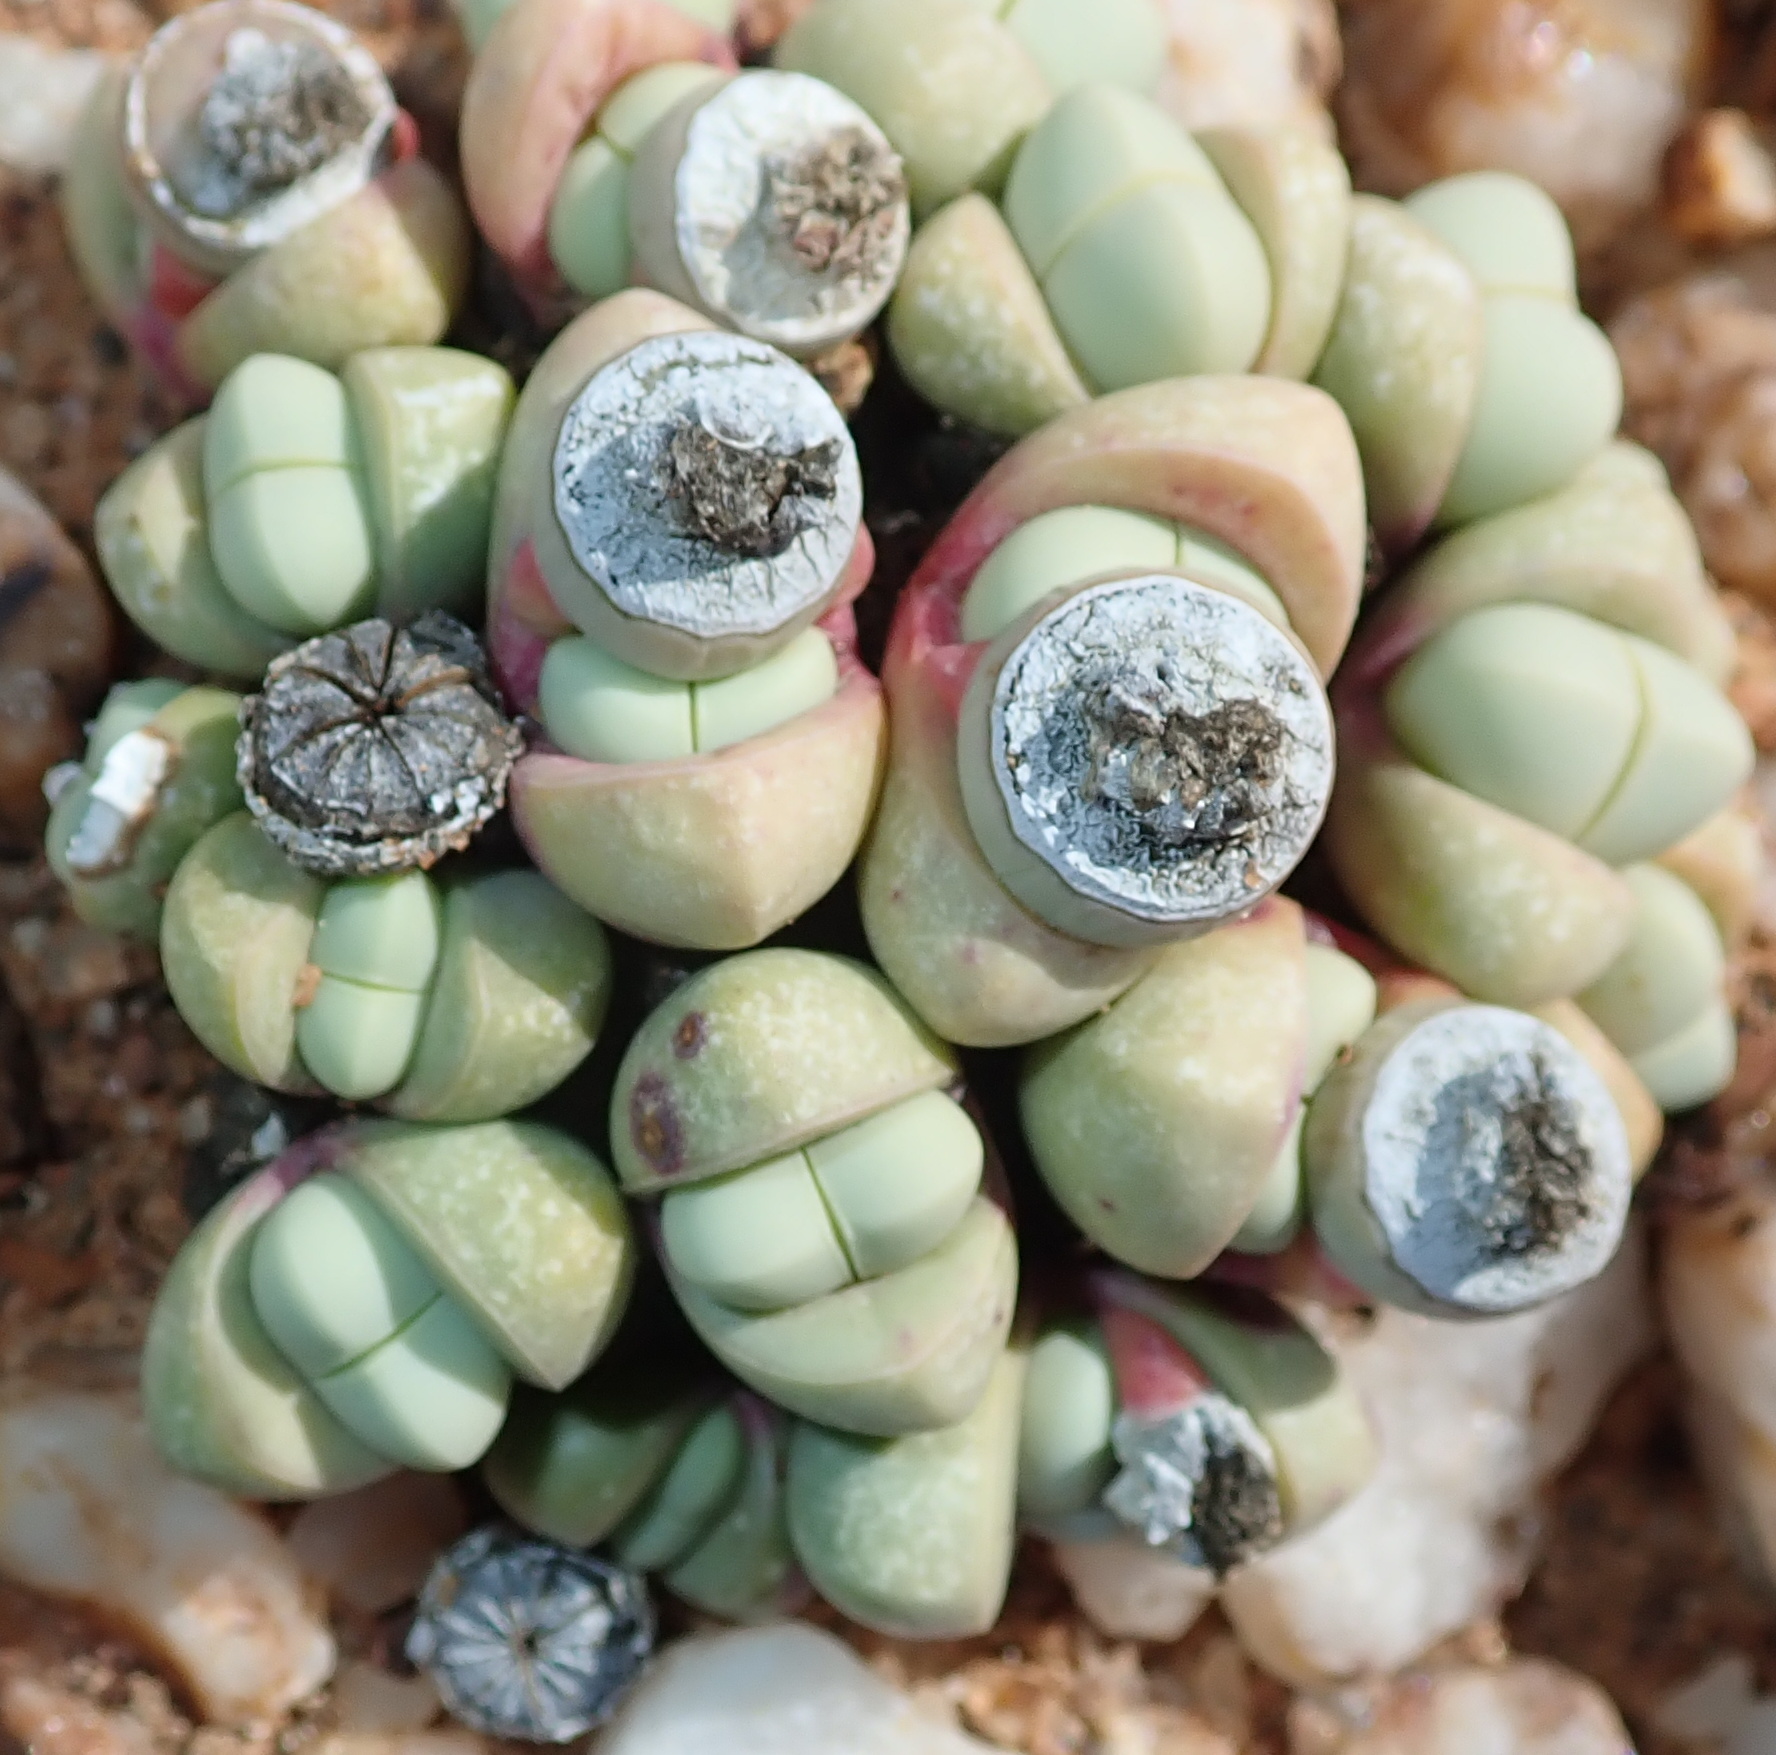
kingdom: Plantae
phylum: Tracheophyta
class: Magnoliopsida
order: Caryophyllales
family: Aizoaceae
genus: Argyroderma
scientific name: Argyroderma framesii
